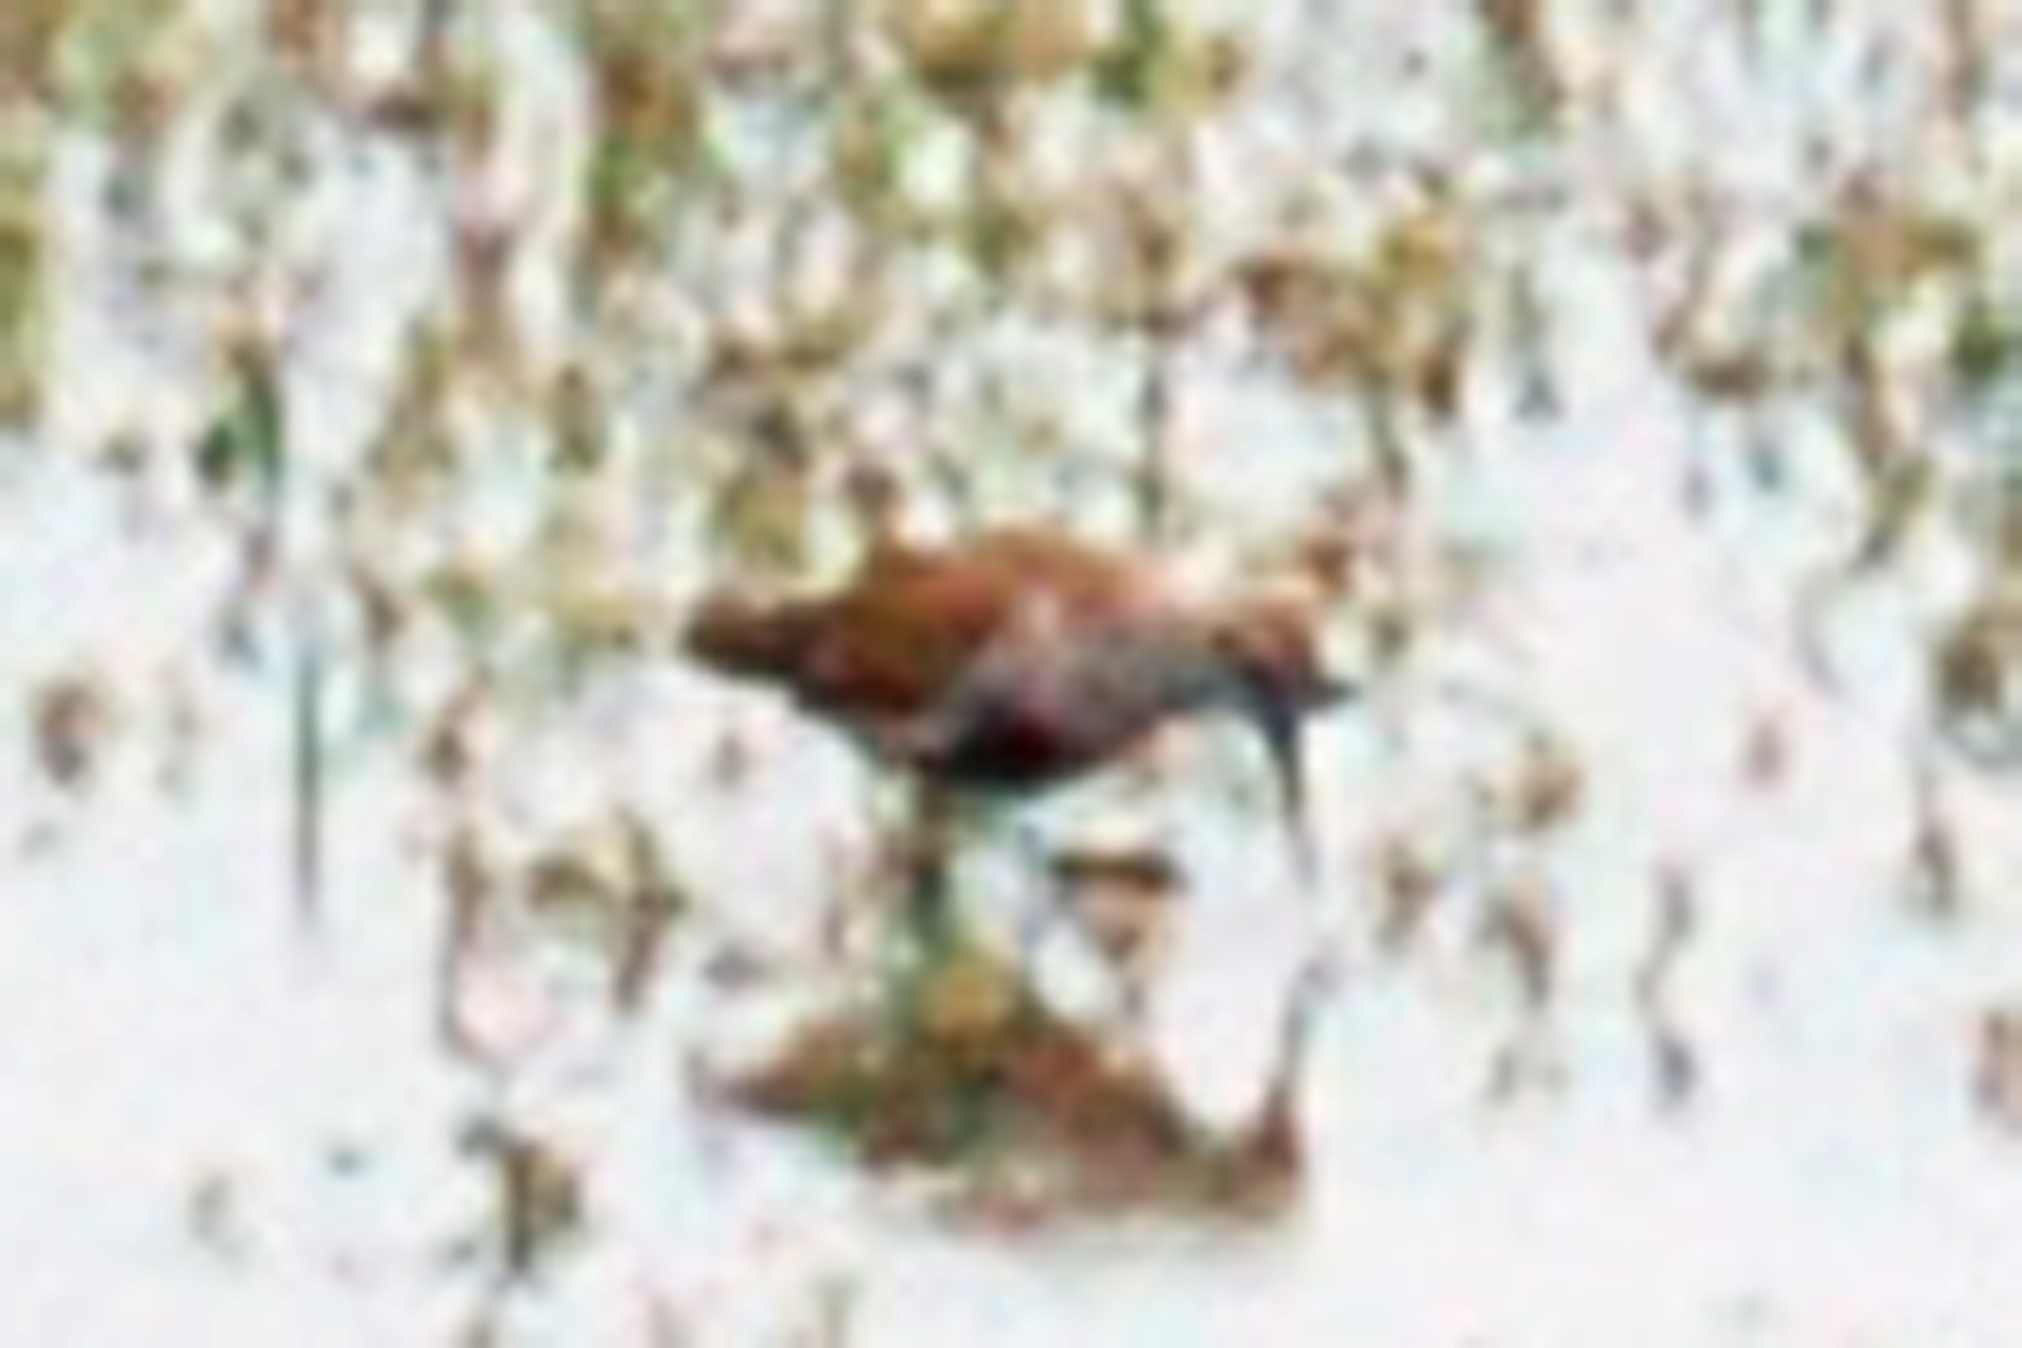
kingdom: Animalia
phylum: Chordata
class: Aves
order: Charadriiformes
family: Scolopacidae
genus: Calidris
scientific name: Calidris alpina
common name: Dunlin
